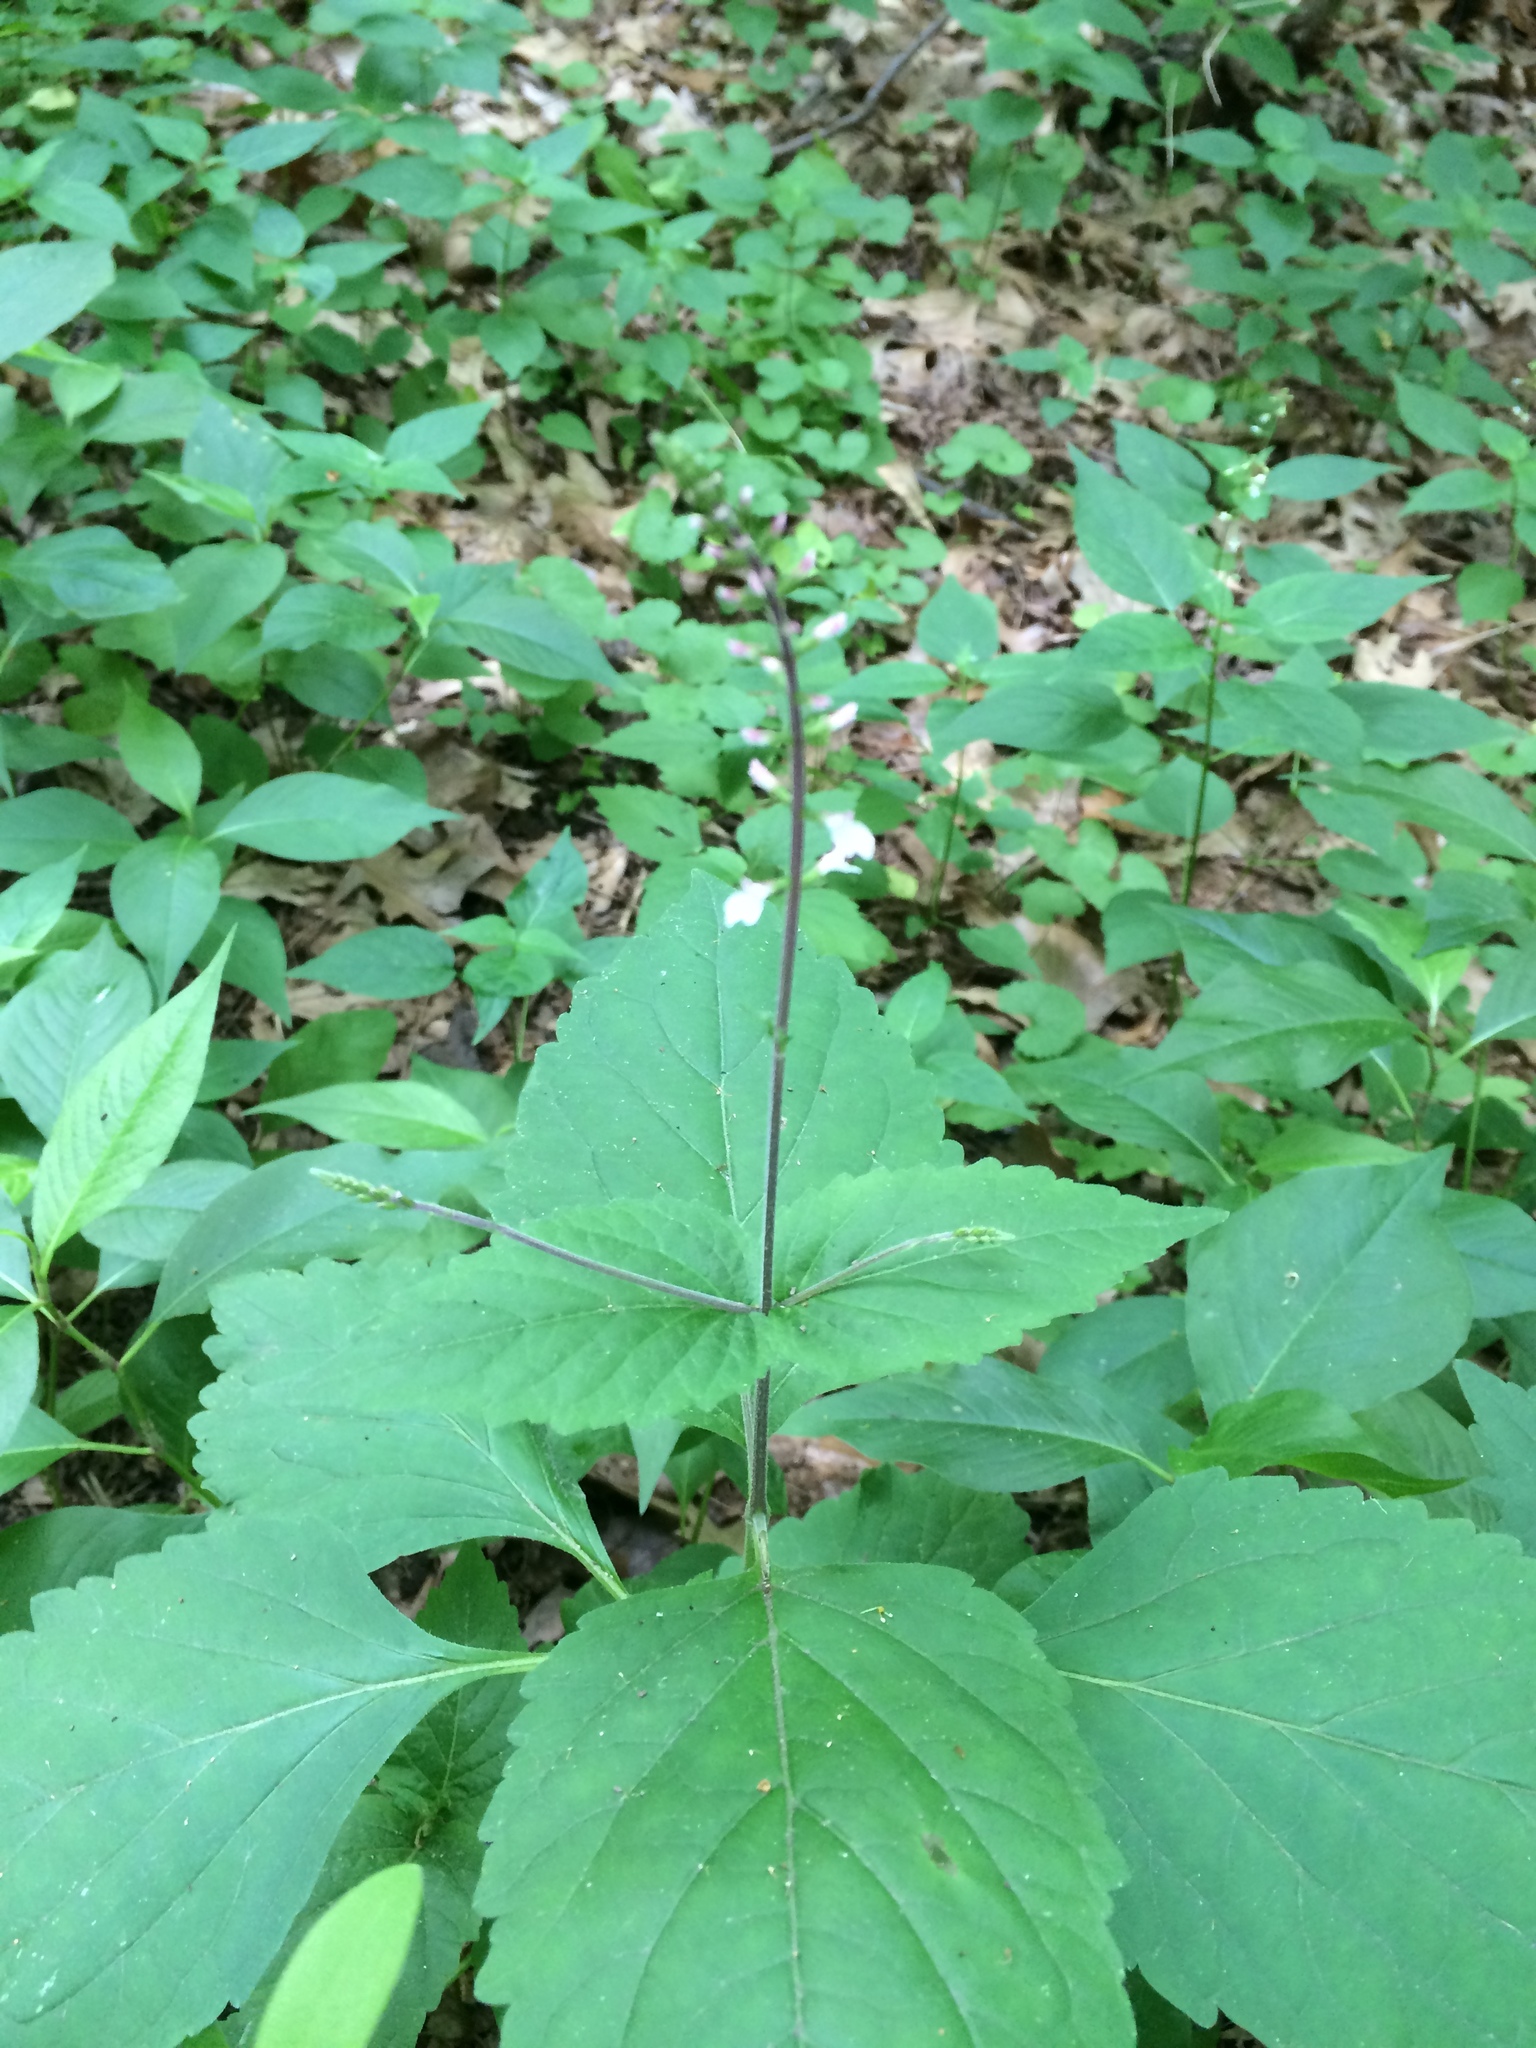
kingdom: Plantae
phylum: Tracheophyta
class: Magnoliopsida
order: Lamiales
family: Phrymaceae
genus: Phryma
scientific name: Phryma leptostachya
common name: American lopseed
